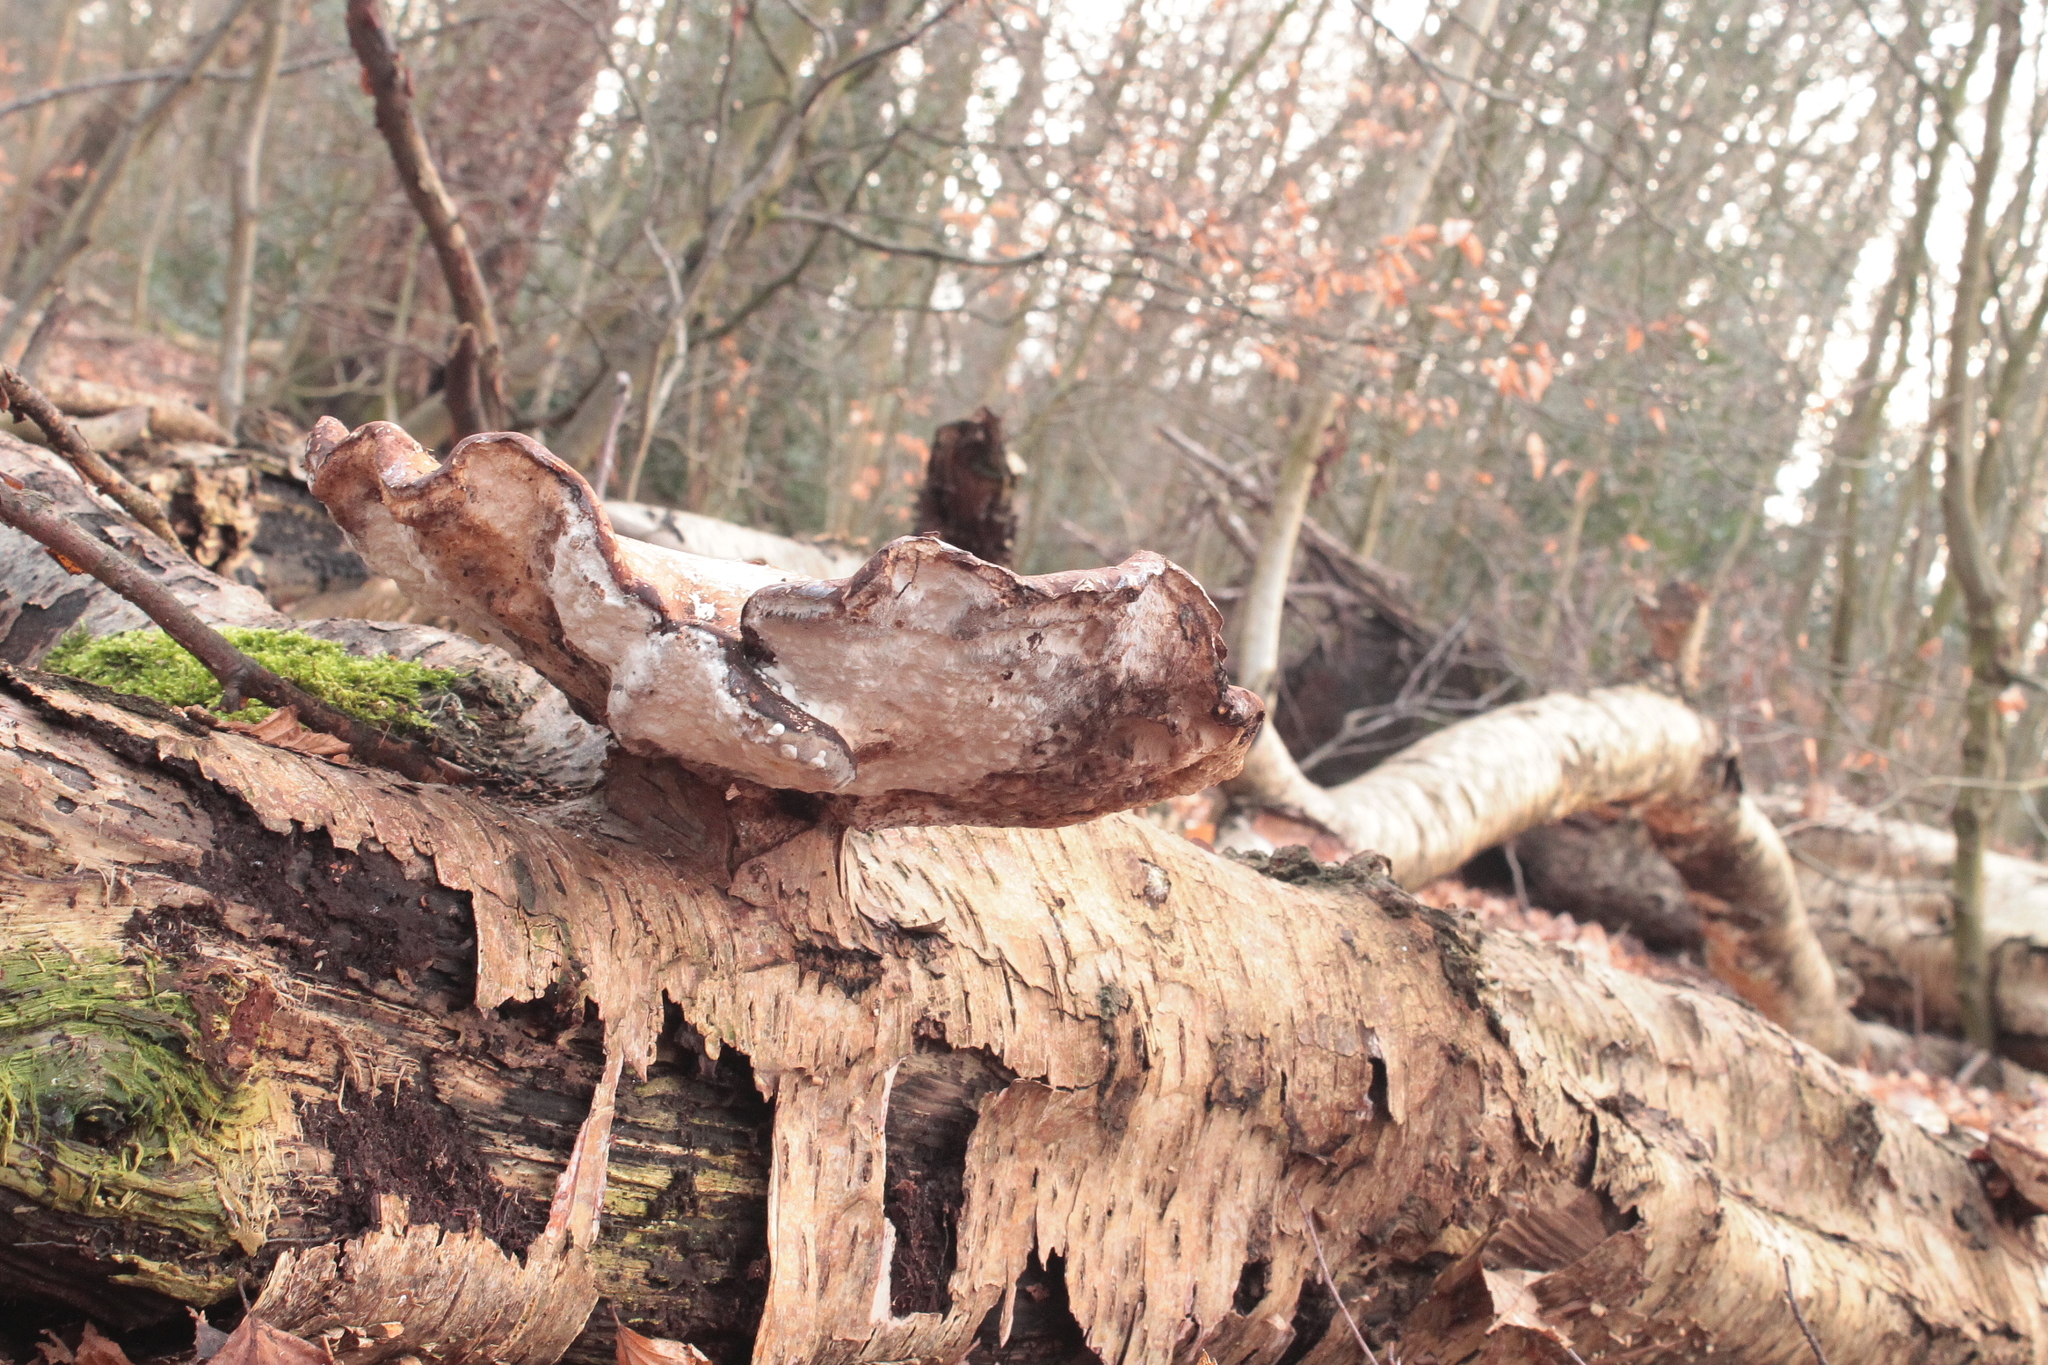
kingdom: Fungi
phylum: Basidiomycota
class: Agaricomycetes
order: Polyporales
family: Fomitopsidaceae
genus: Fomitopsis
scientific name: Fomitopsis betulina
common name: Birch polypore
